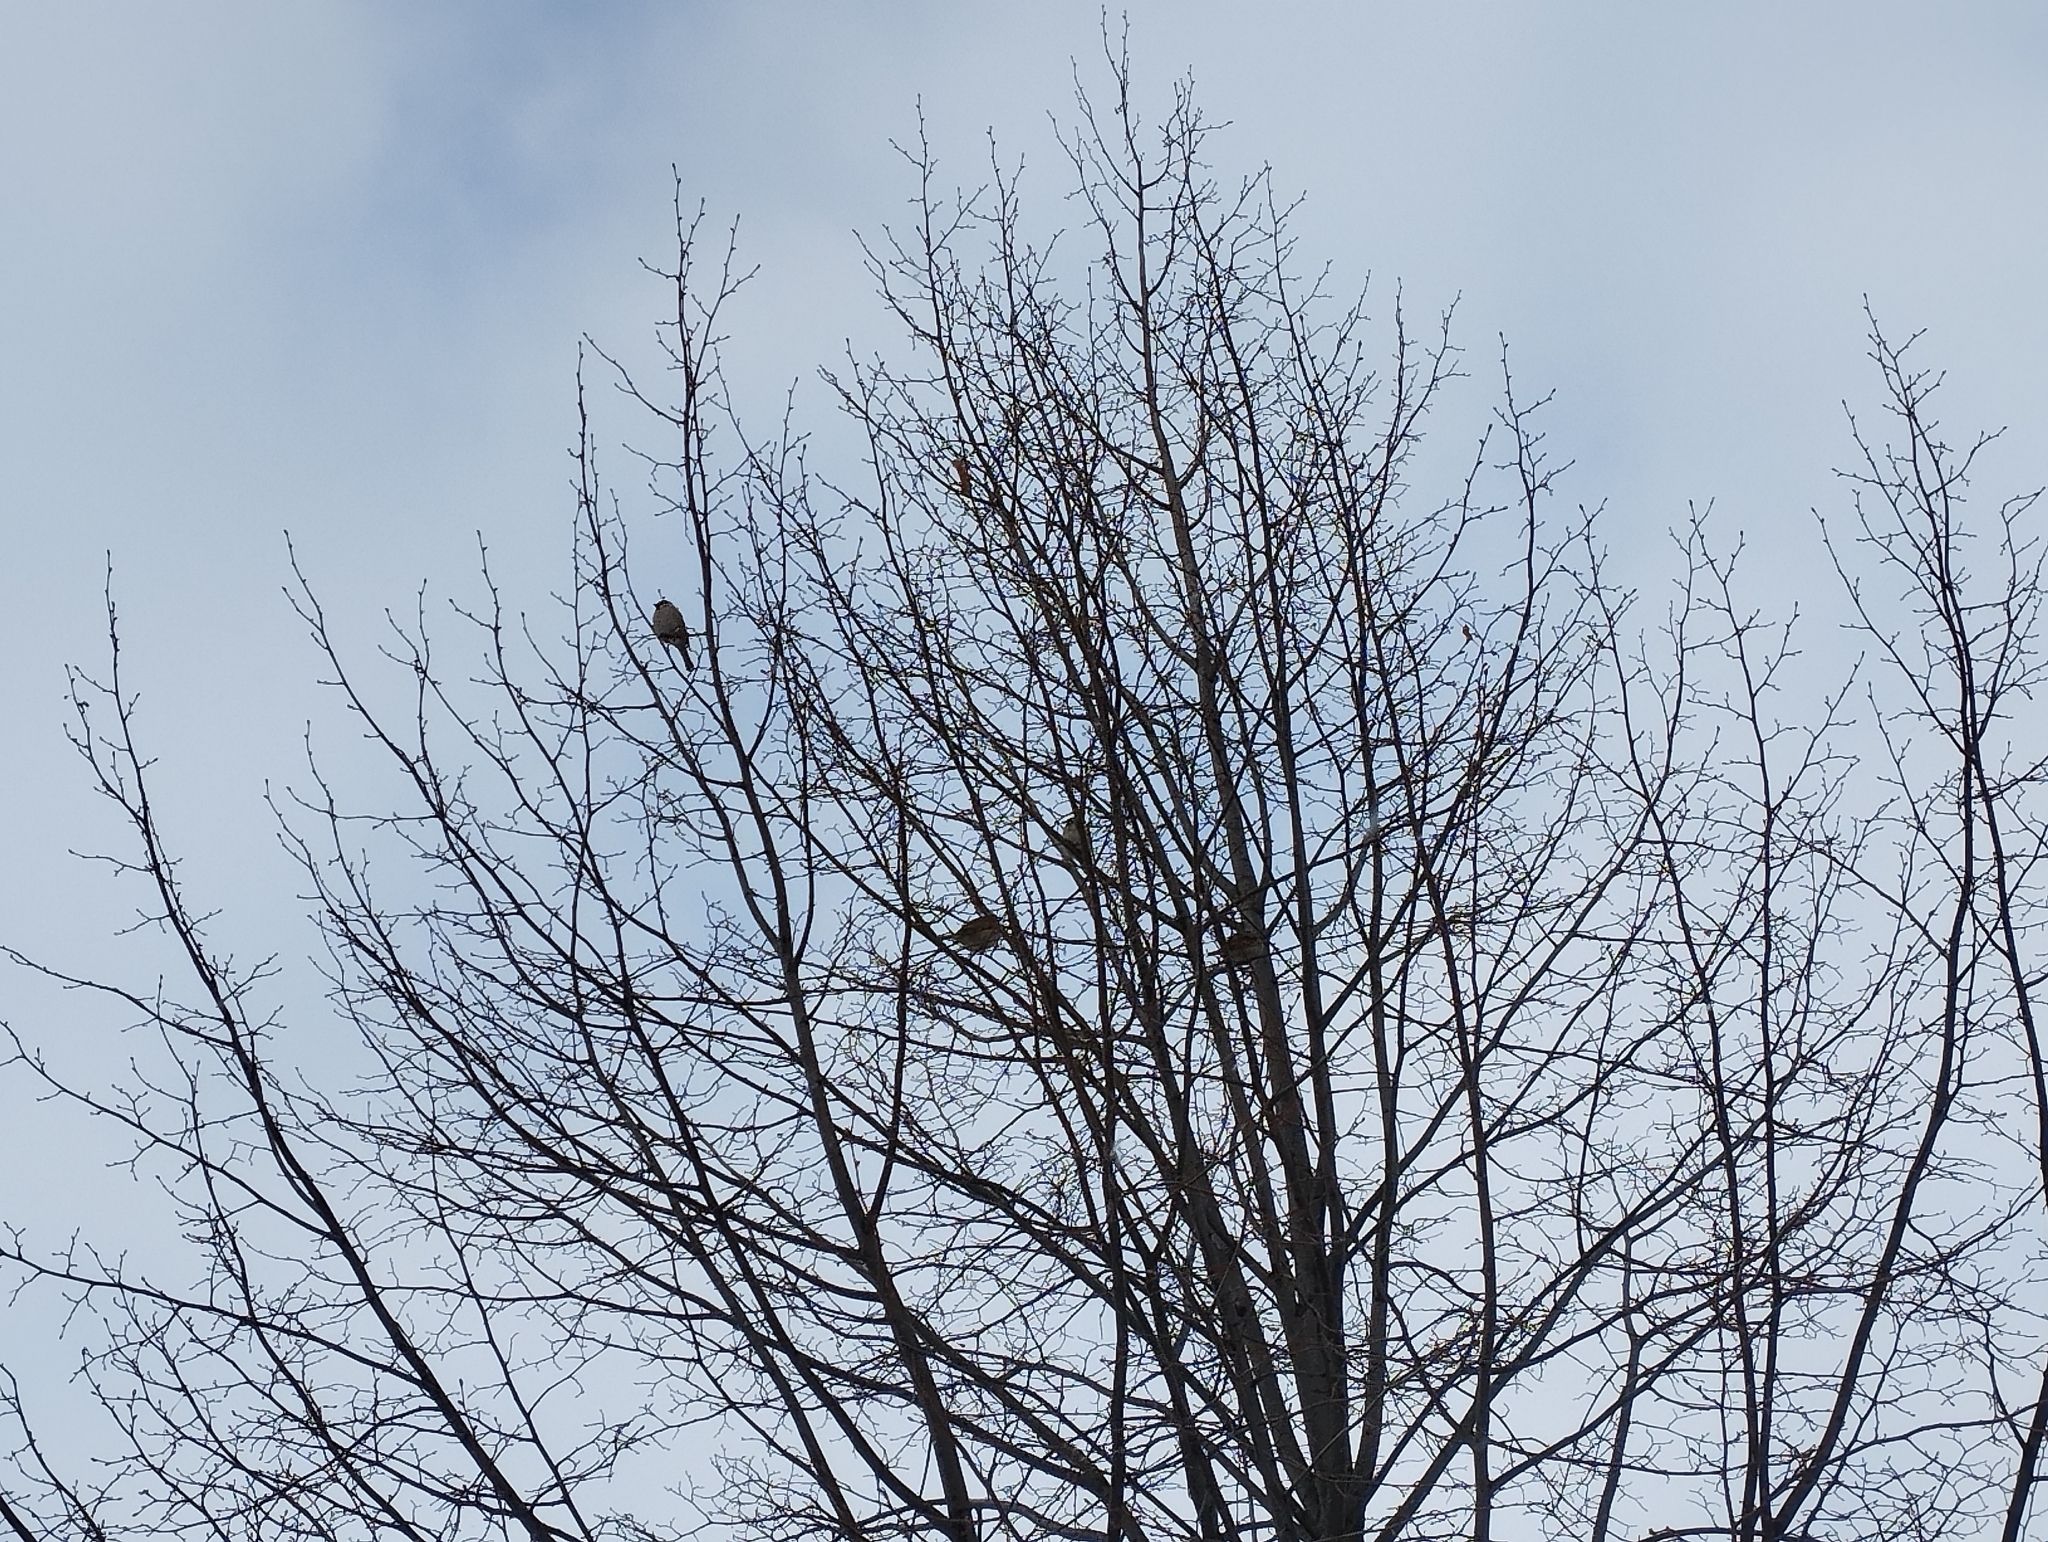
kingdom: Animalia
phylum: Chordata
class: Aves
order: Passeriformes
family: Passeridae
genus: Passer
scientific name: Passer montanus
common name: Eurasian tree sparrow
